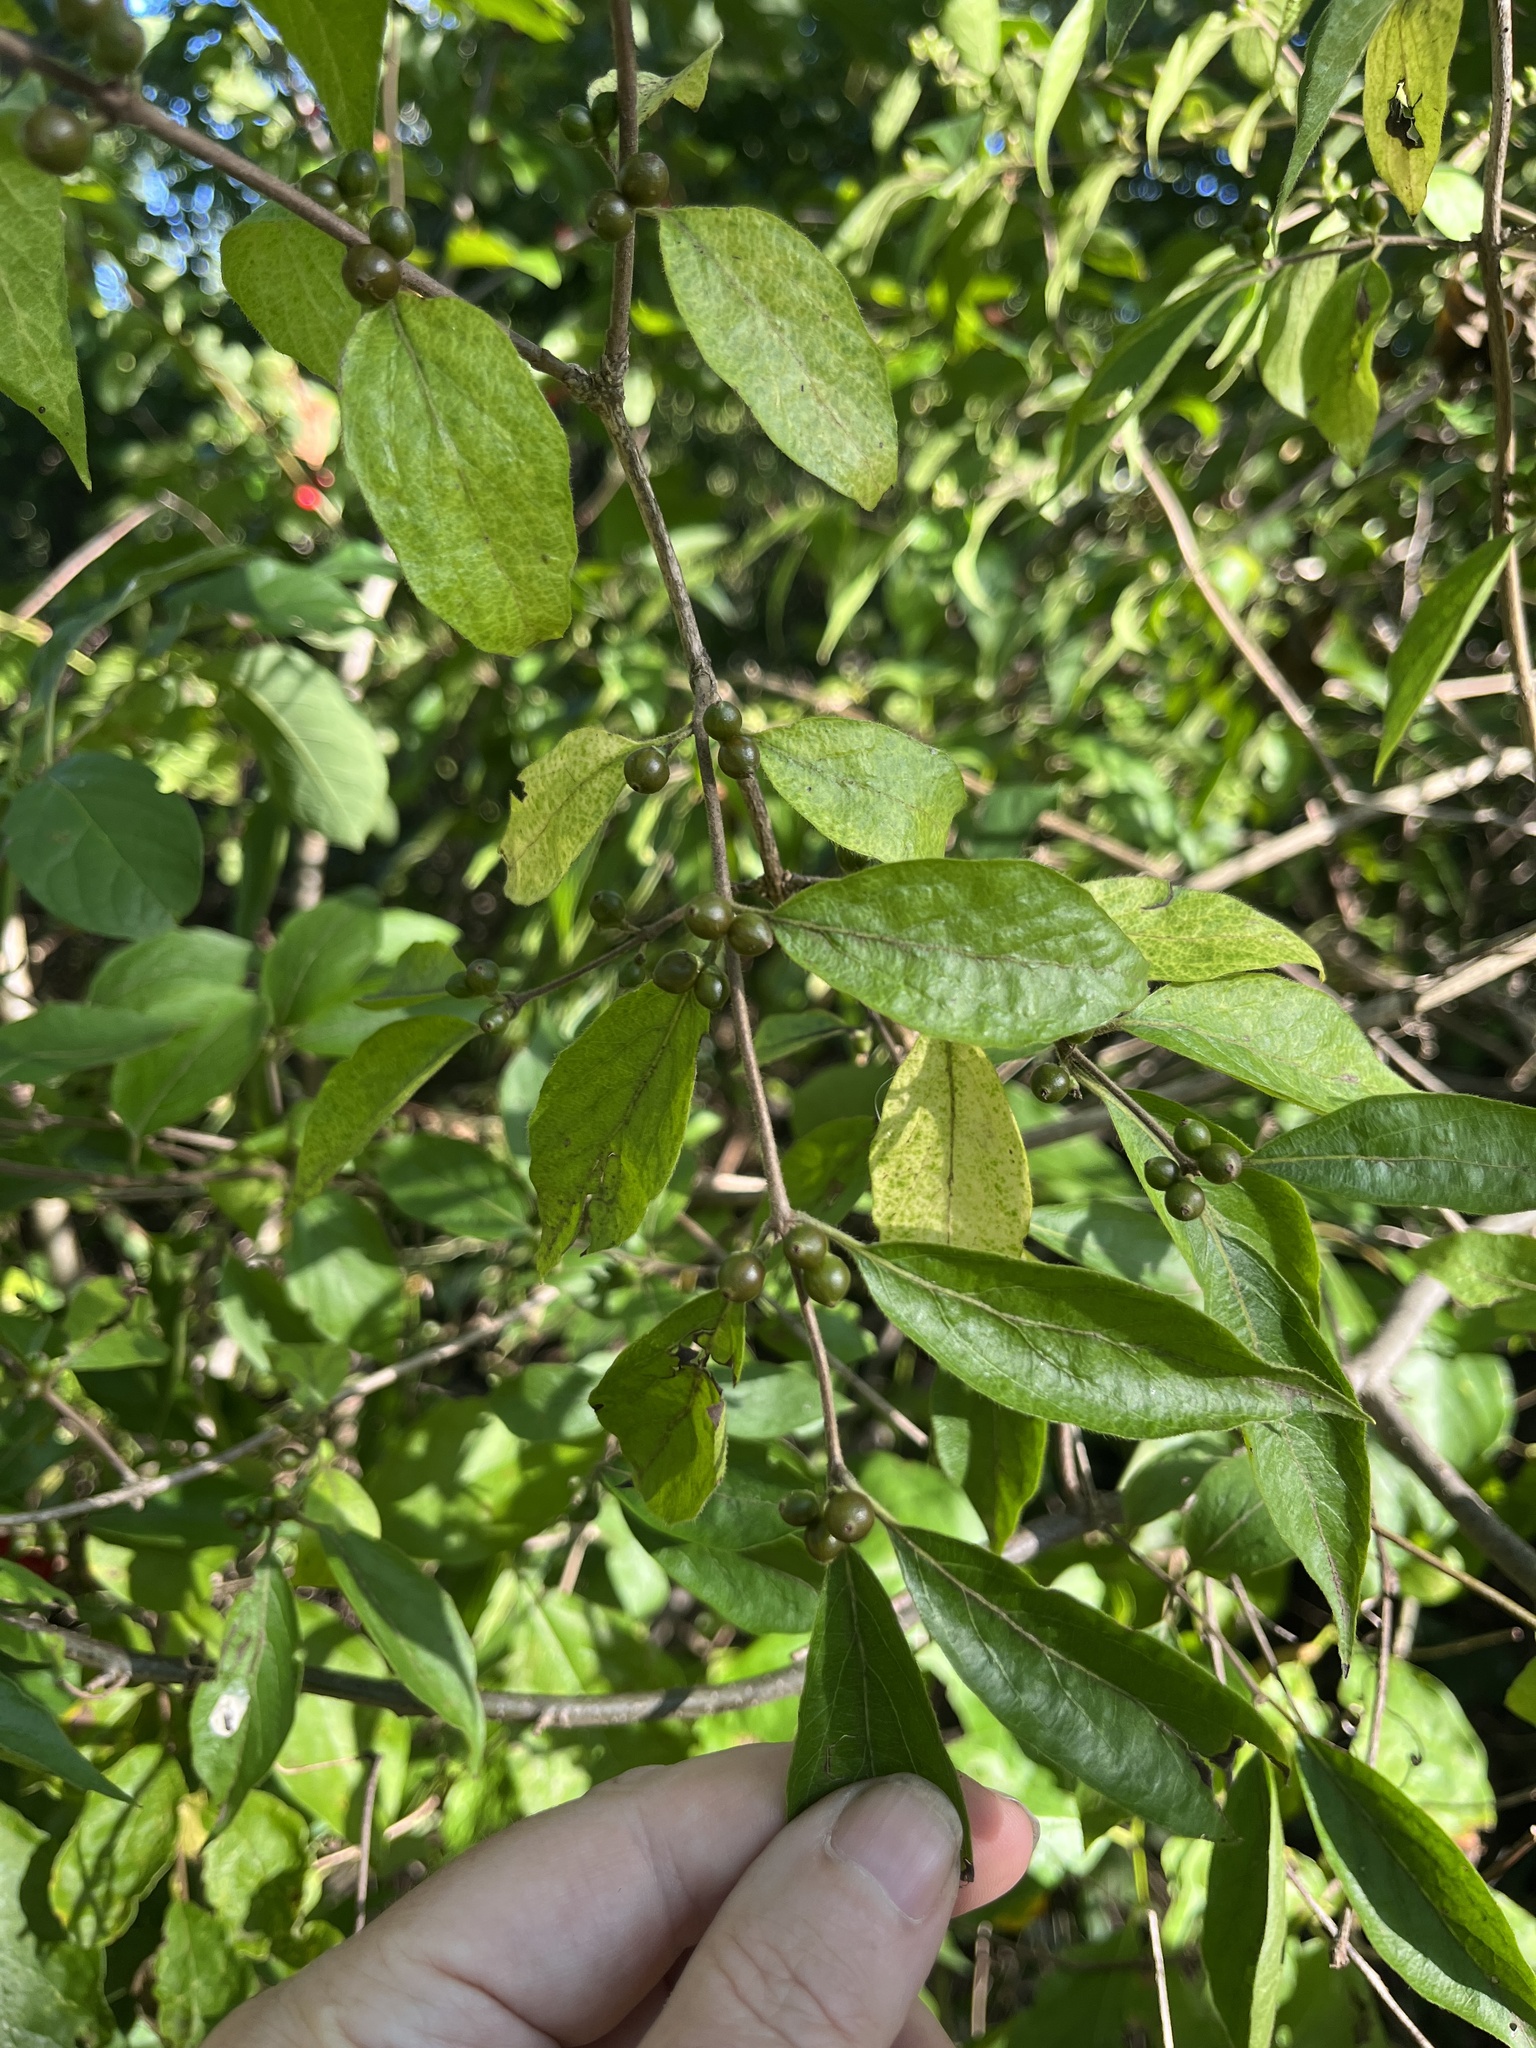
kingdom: Plantae
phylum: Tracheophyta
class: Magnoliopsida
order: Dipsacales
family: Caprifoliaceae
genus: Lonicera
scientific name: Lonicera maackii
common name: Amur honeysuckle
